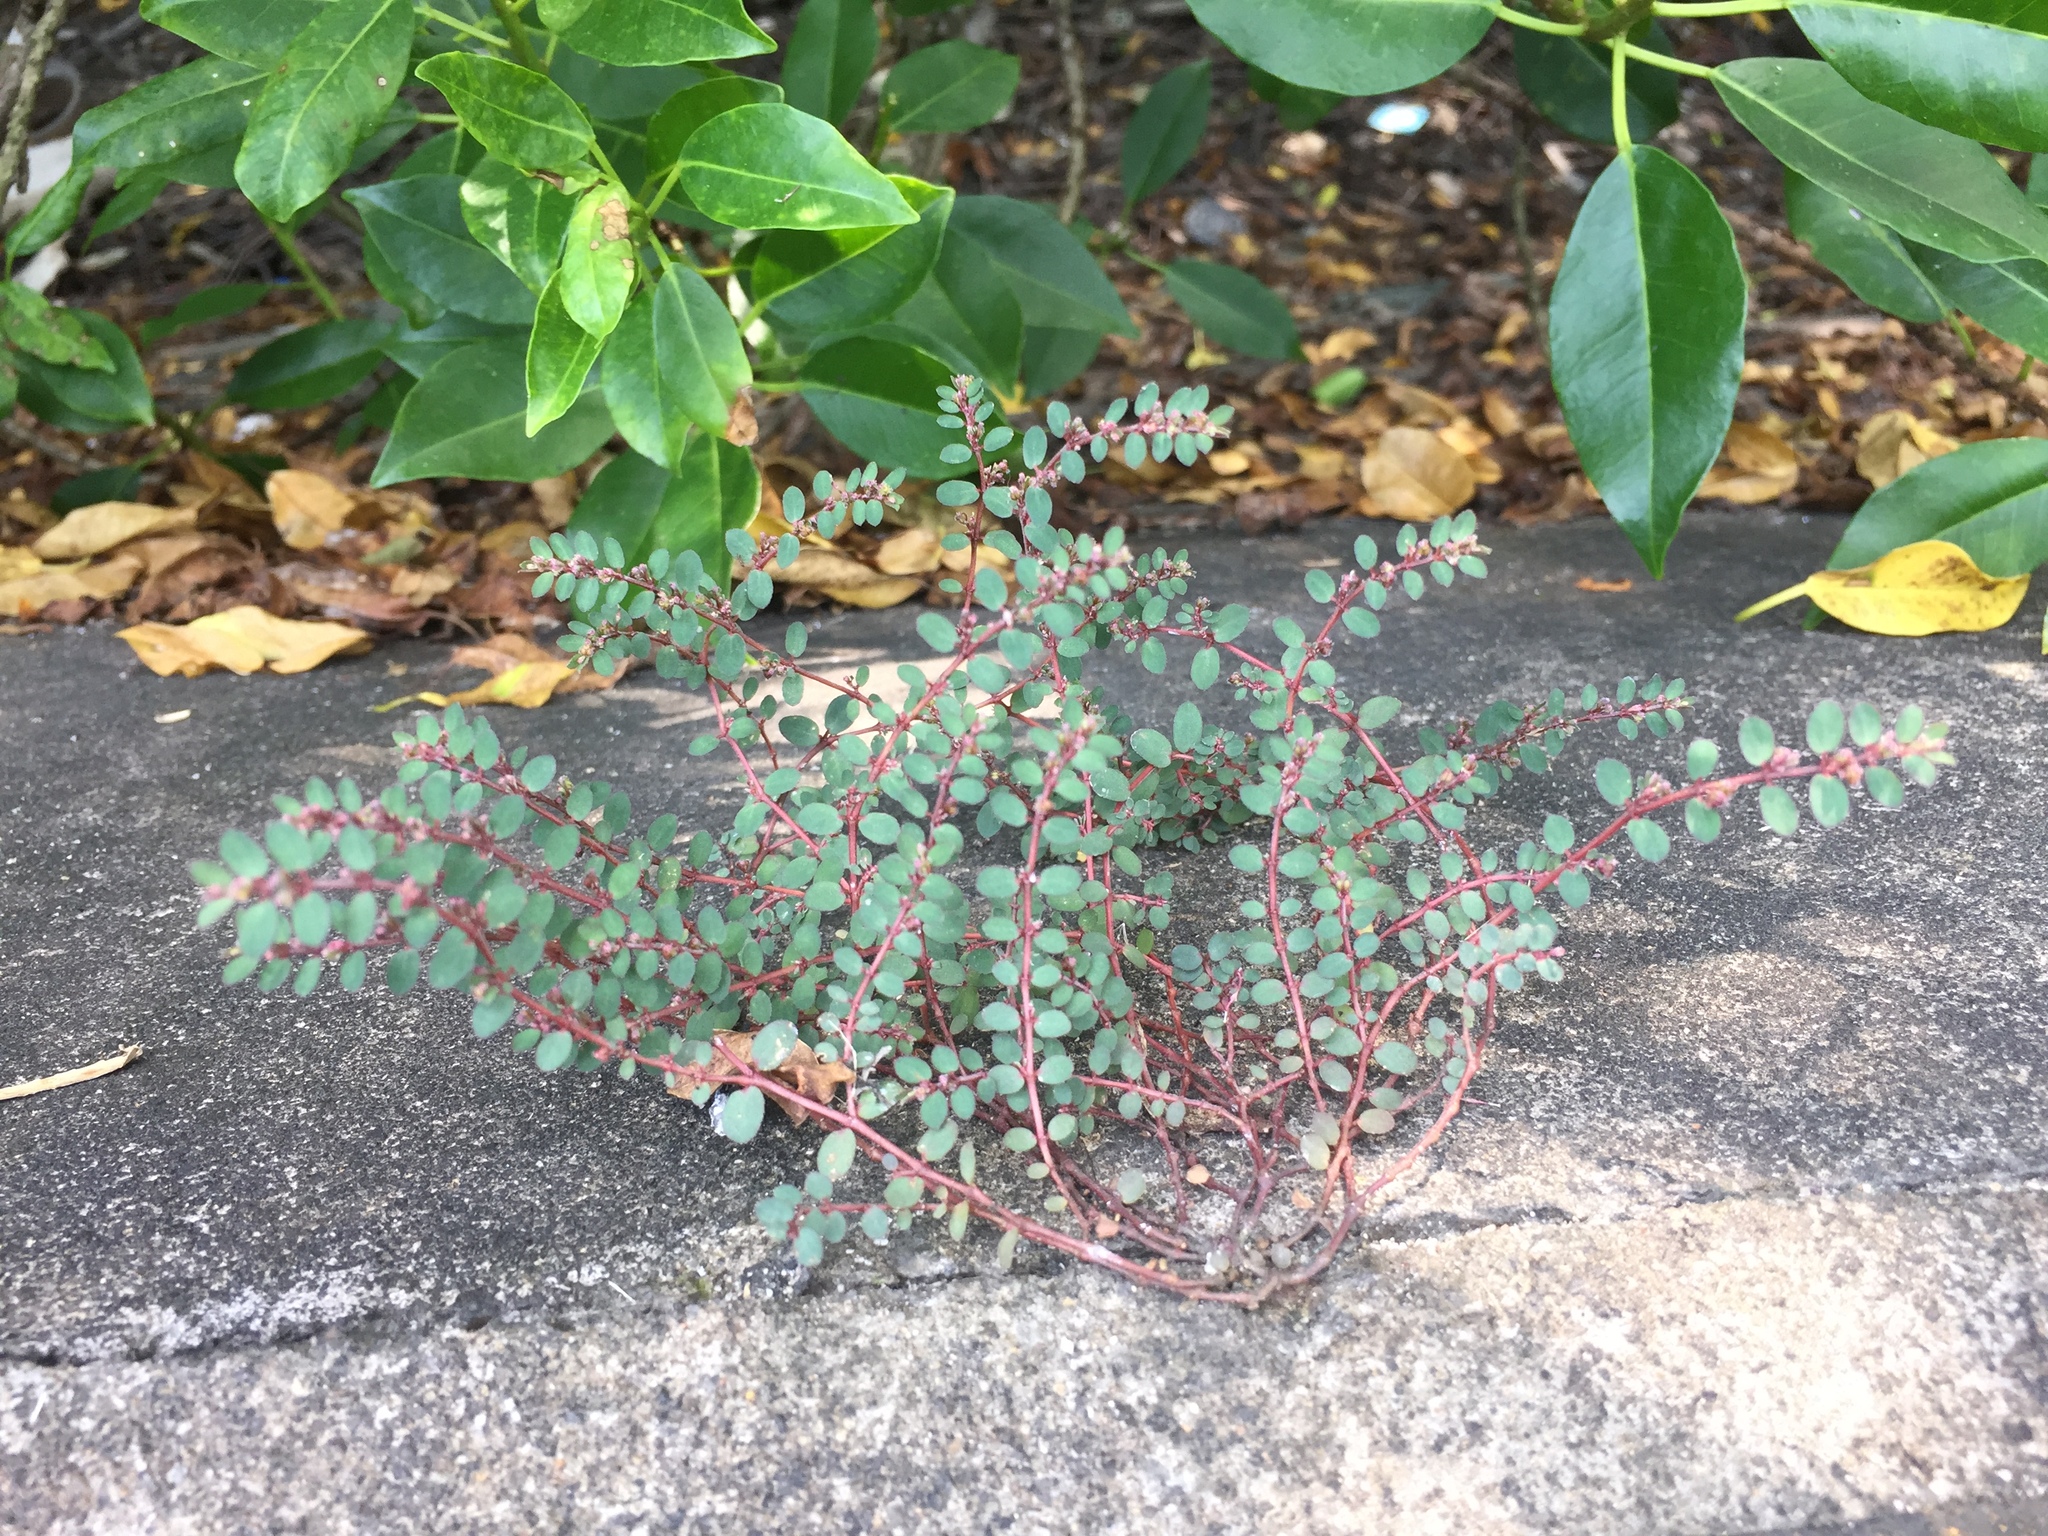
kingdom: Plantae
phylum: Tracheophyta
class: Magnoliopsida
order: Malpighiales
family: Euphorbiaceae
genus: Euphorbia
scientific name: Euphorbia prostrata
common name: Prostrate sandmat
